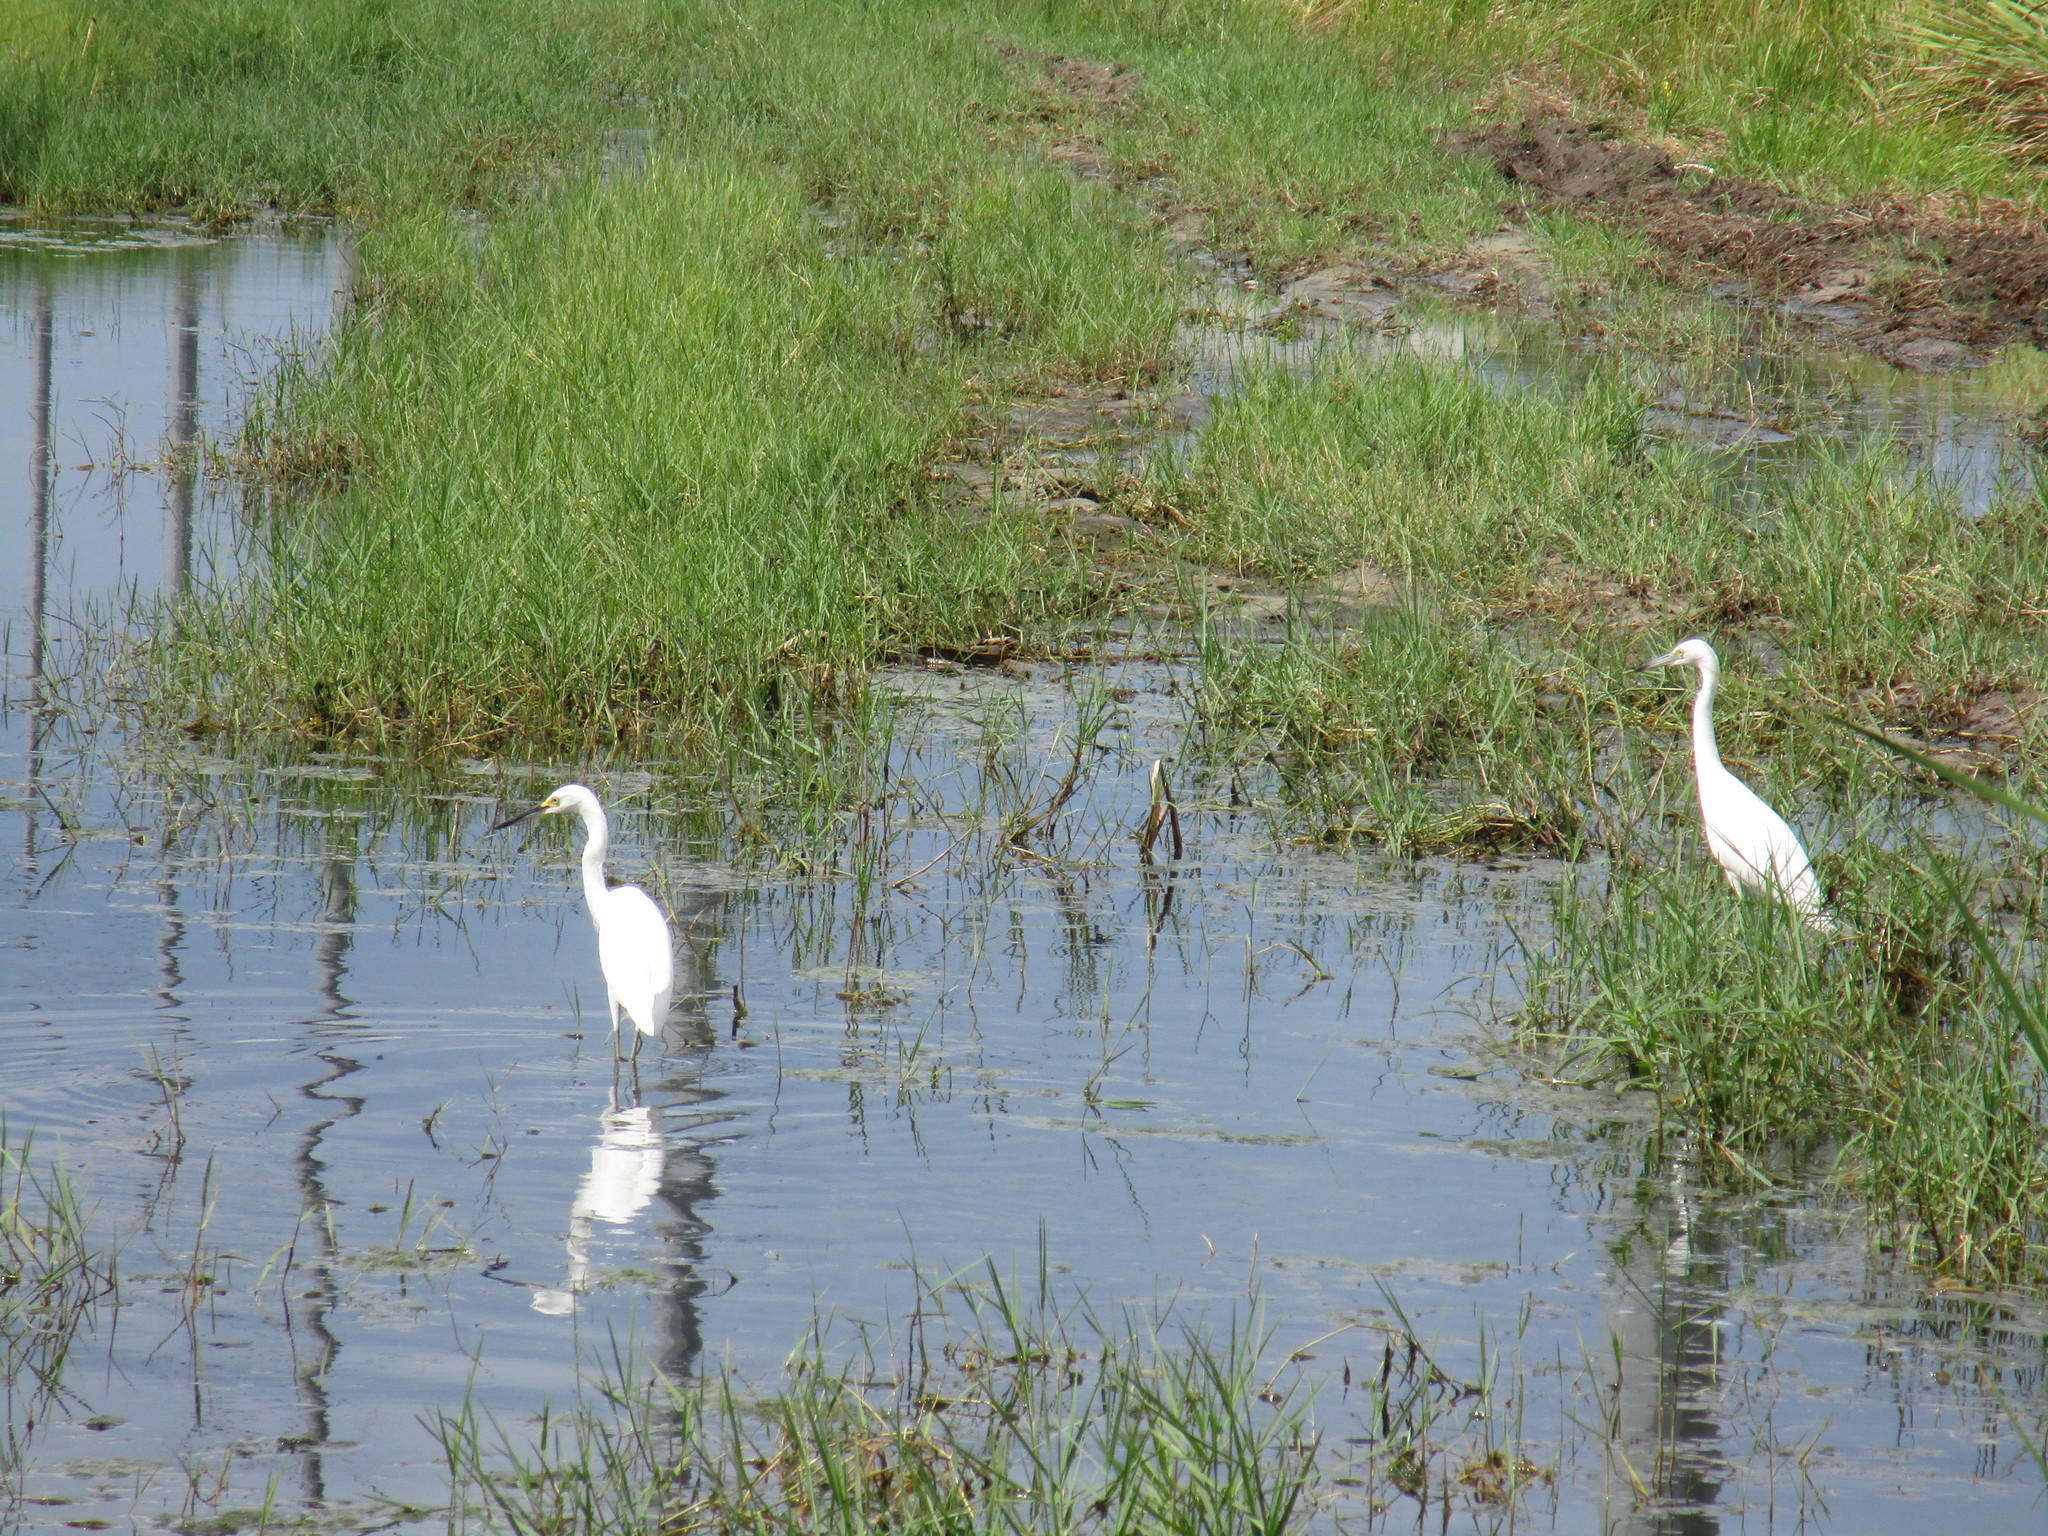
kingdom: Animalia
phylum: Chordata
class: Aves
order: Pelecaniformes
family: Ardeidae
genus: Egretta
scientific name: Egretta thula
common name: Snowy egret
